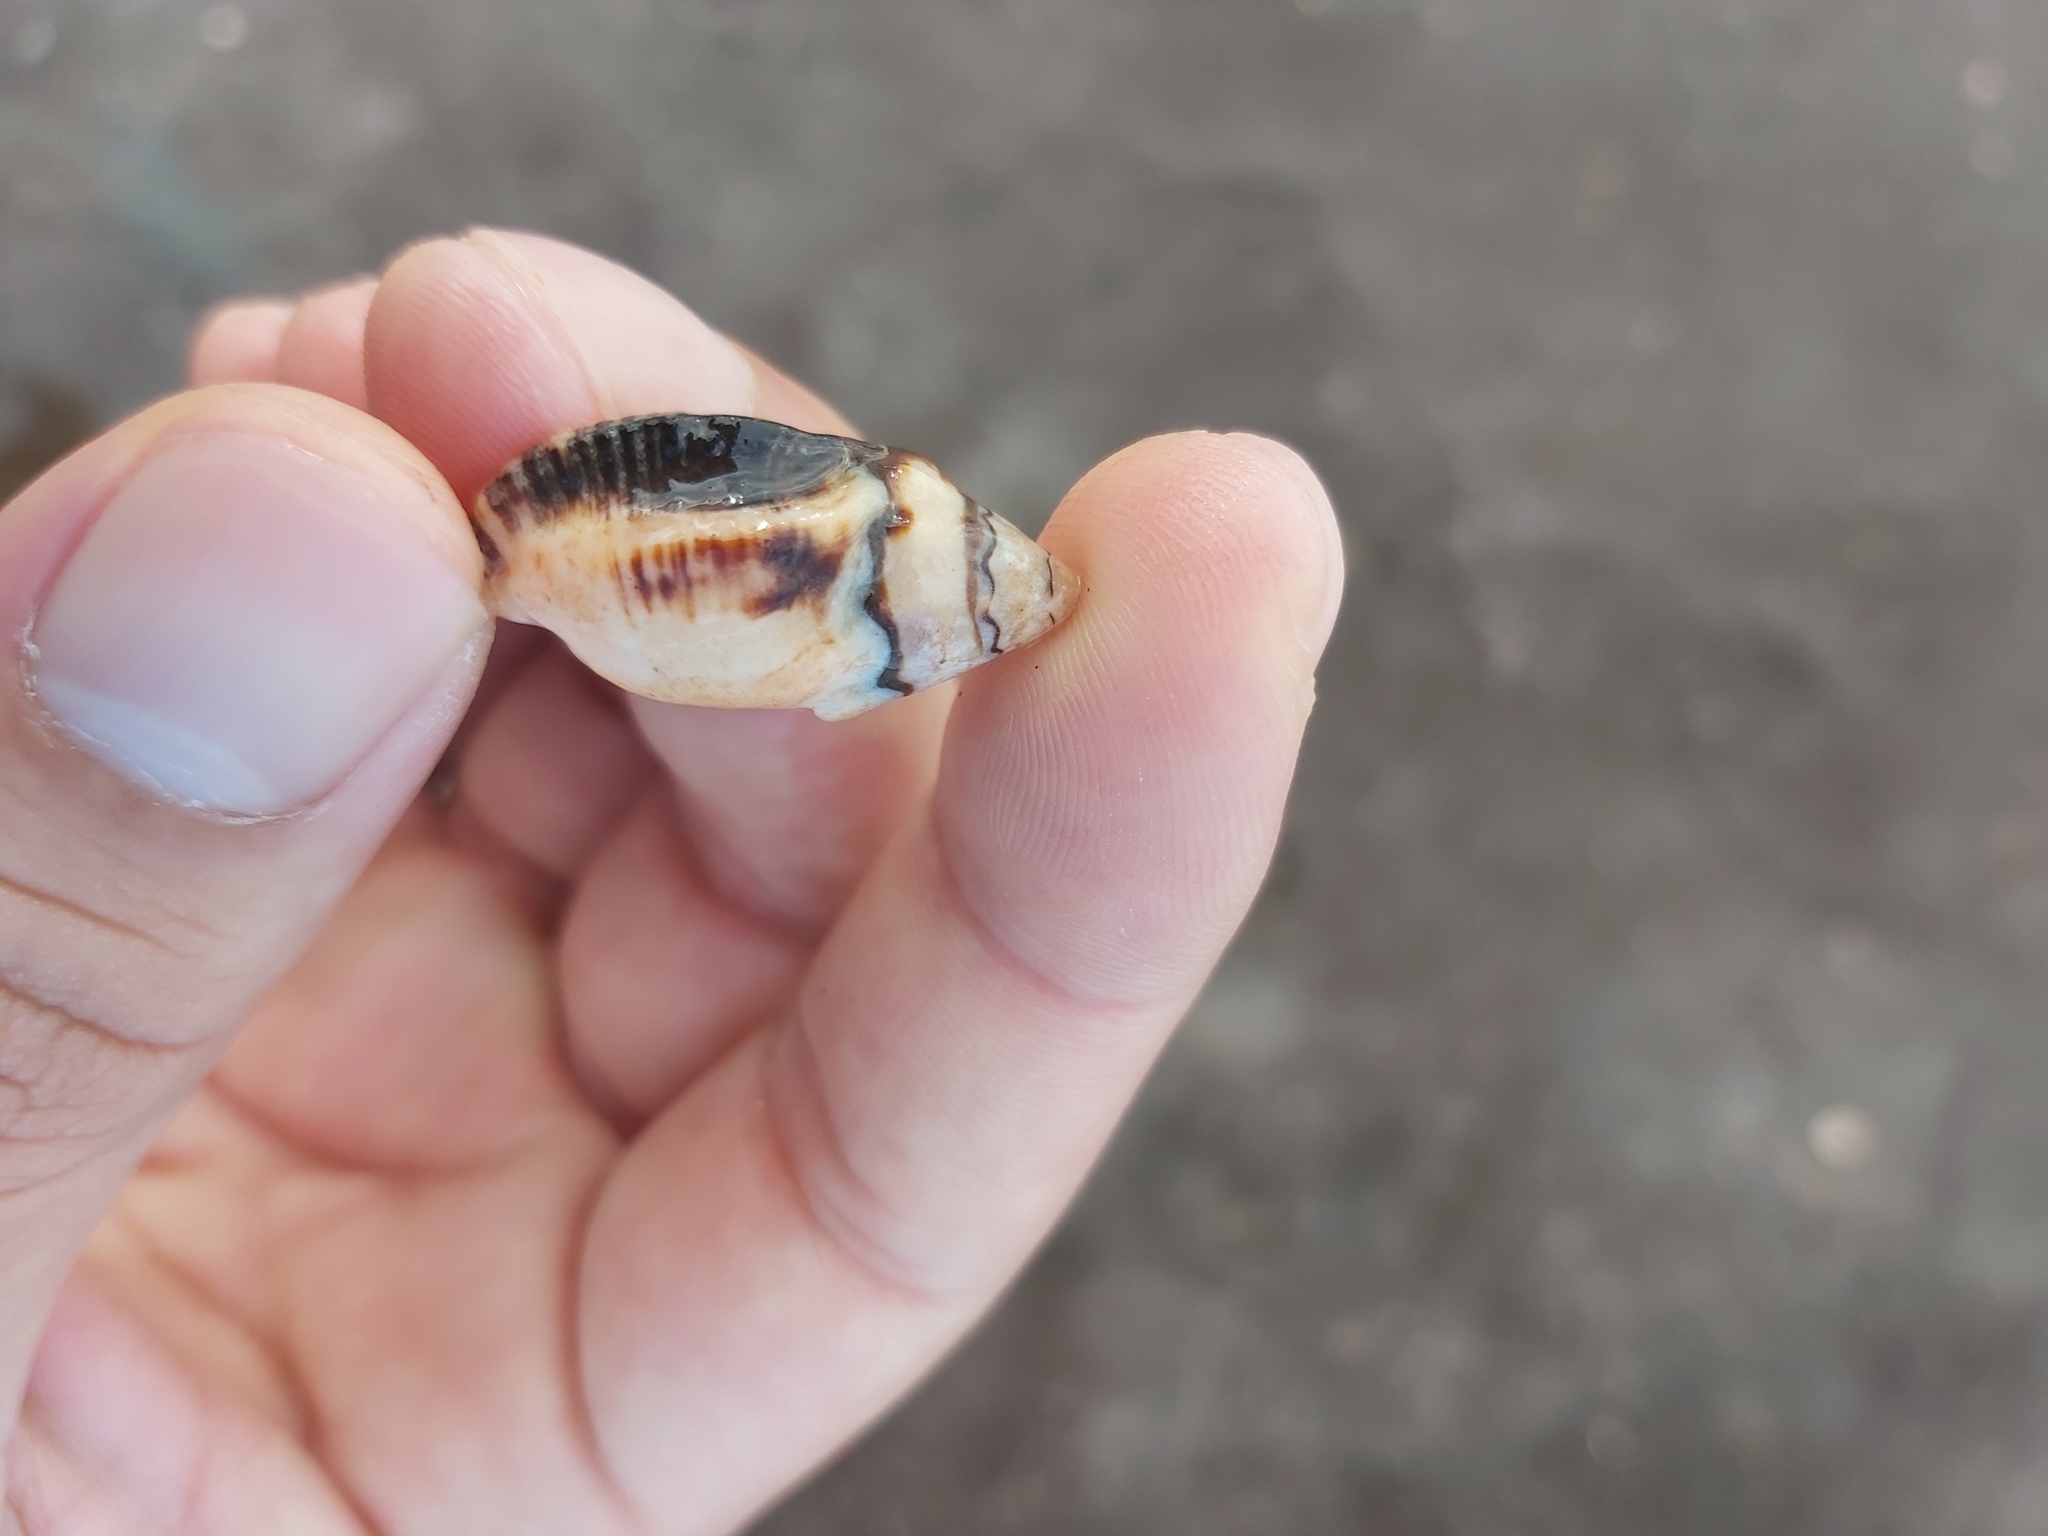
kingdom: Animalia
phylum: Mollusca
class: Gastropoda
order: Neogastropoda
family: Muricidae
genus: Cronia
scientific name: Cronia aurantiaca
